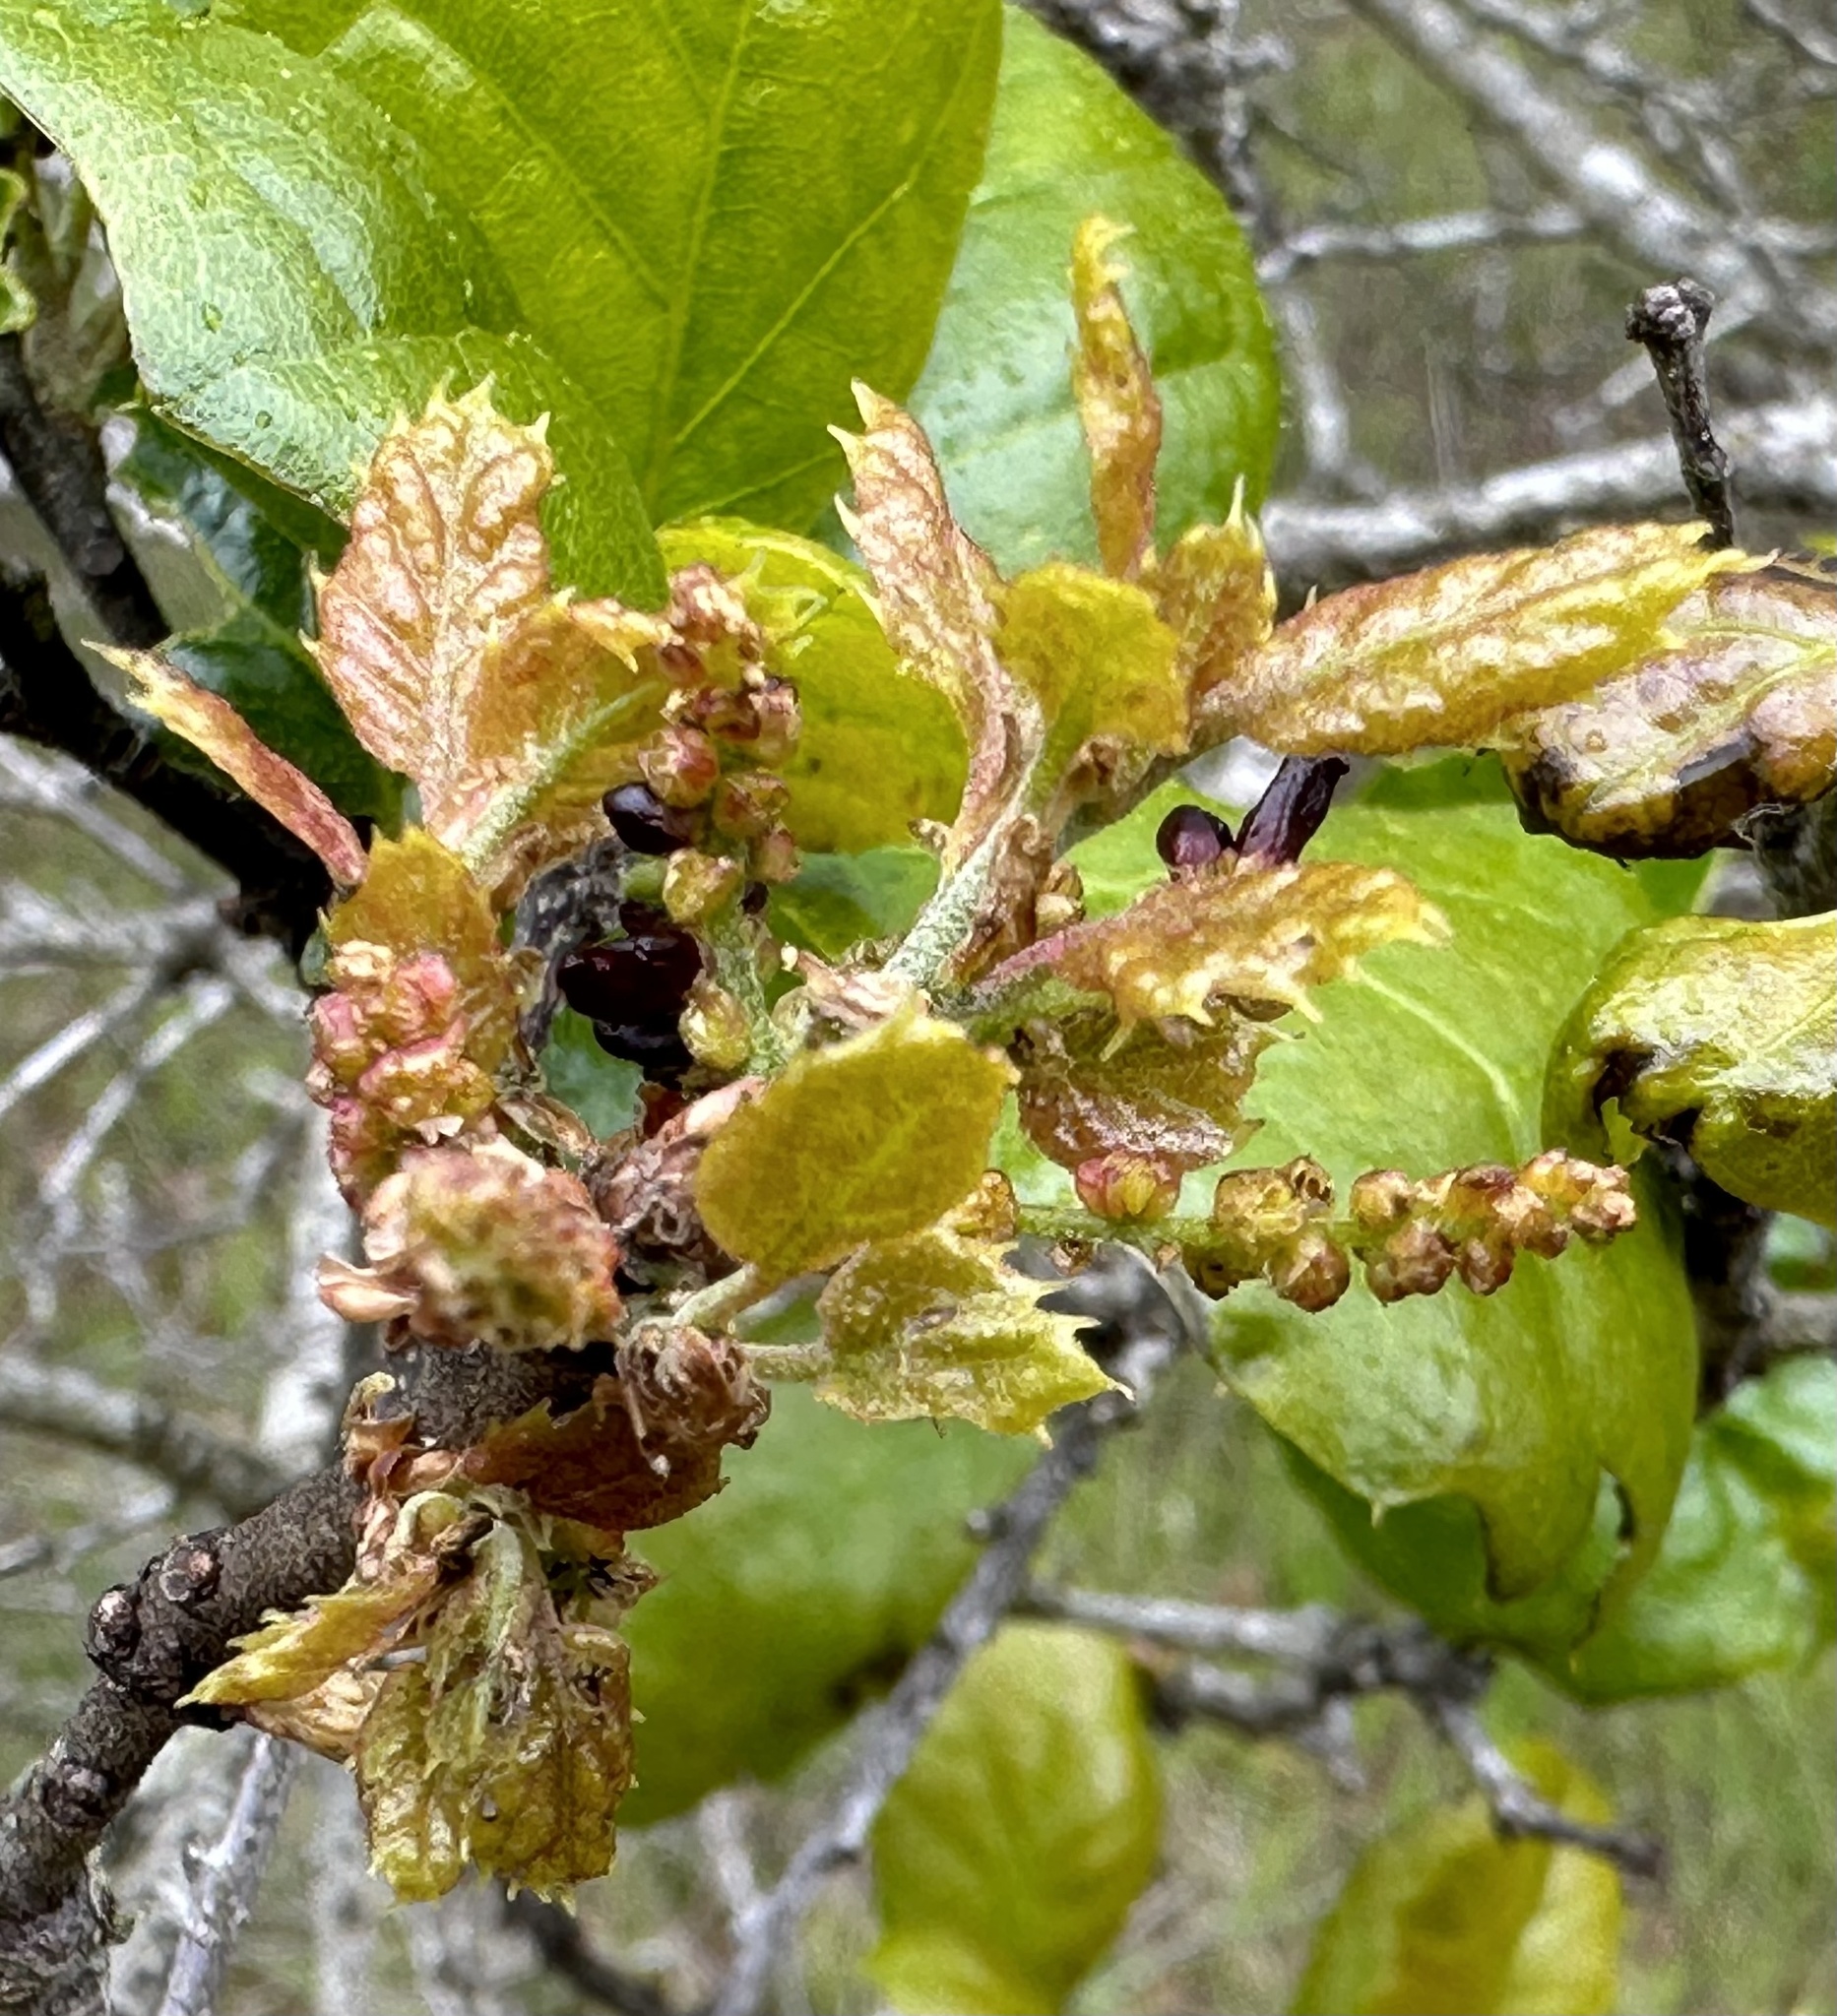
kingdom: Animalia
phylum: Arthropoda
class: Insecta
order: Hymenoptera
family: Cynipidae
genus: Dryocosmus
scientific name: Dryocosmus
